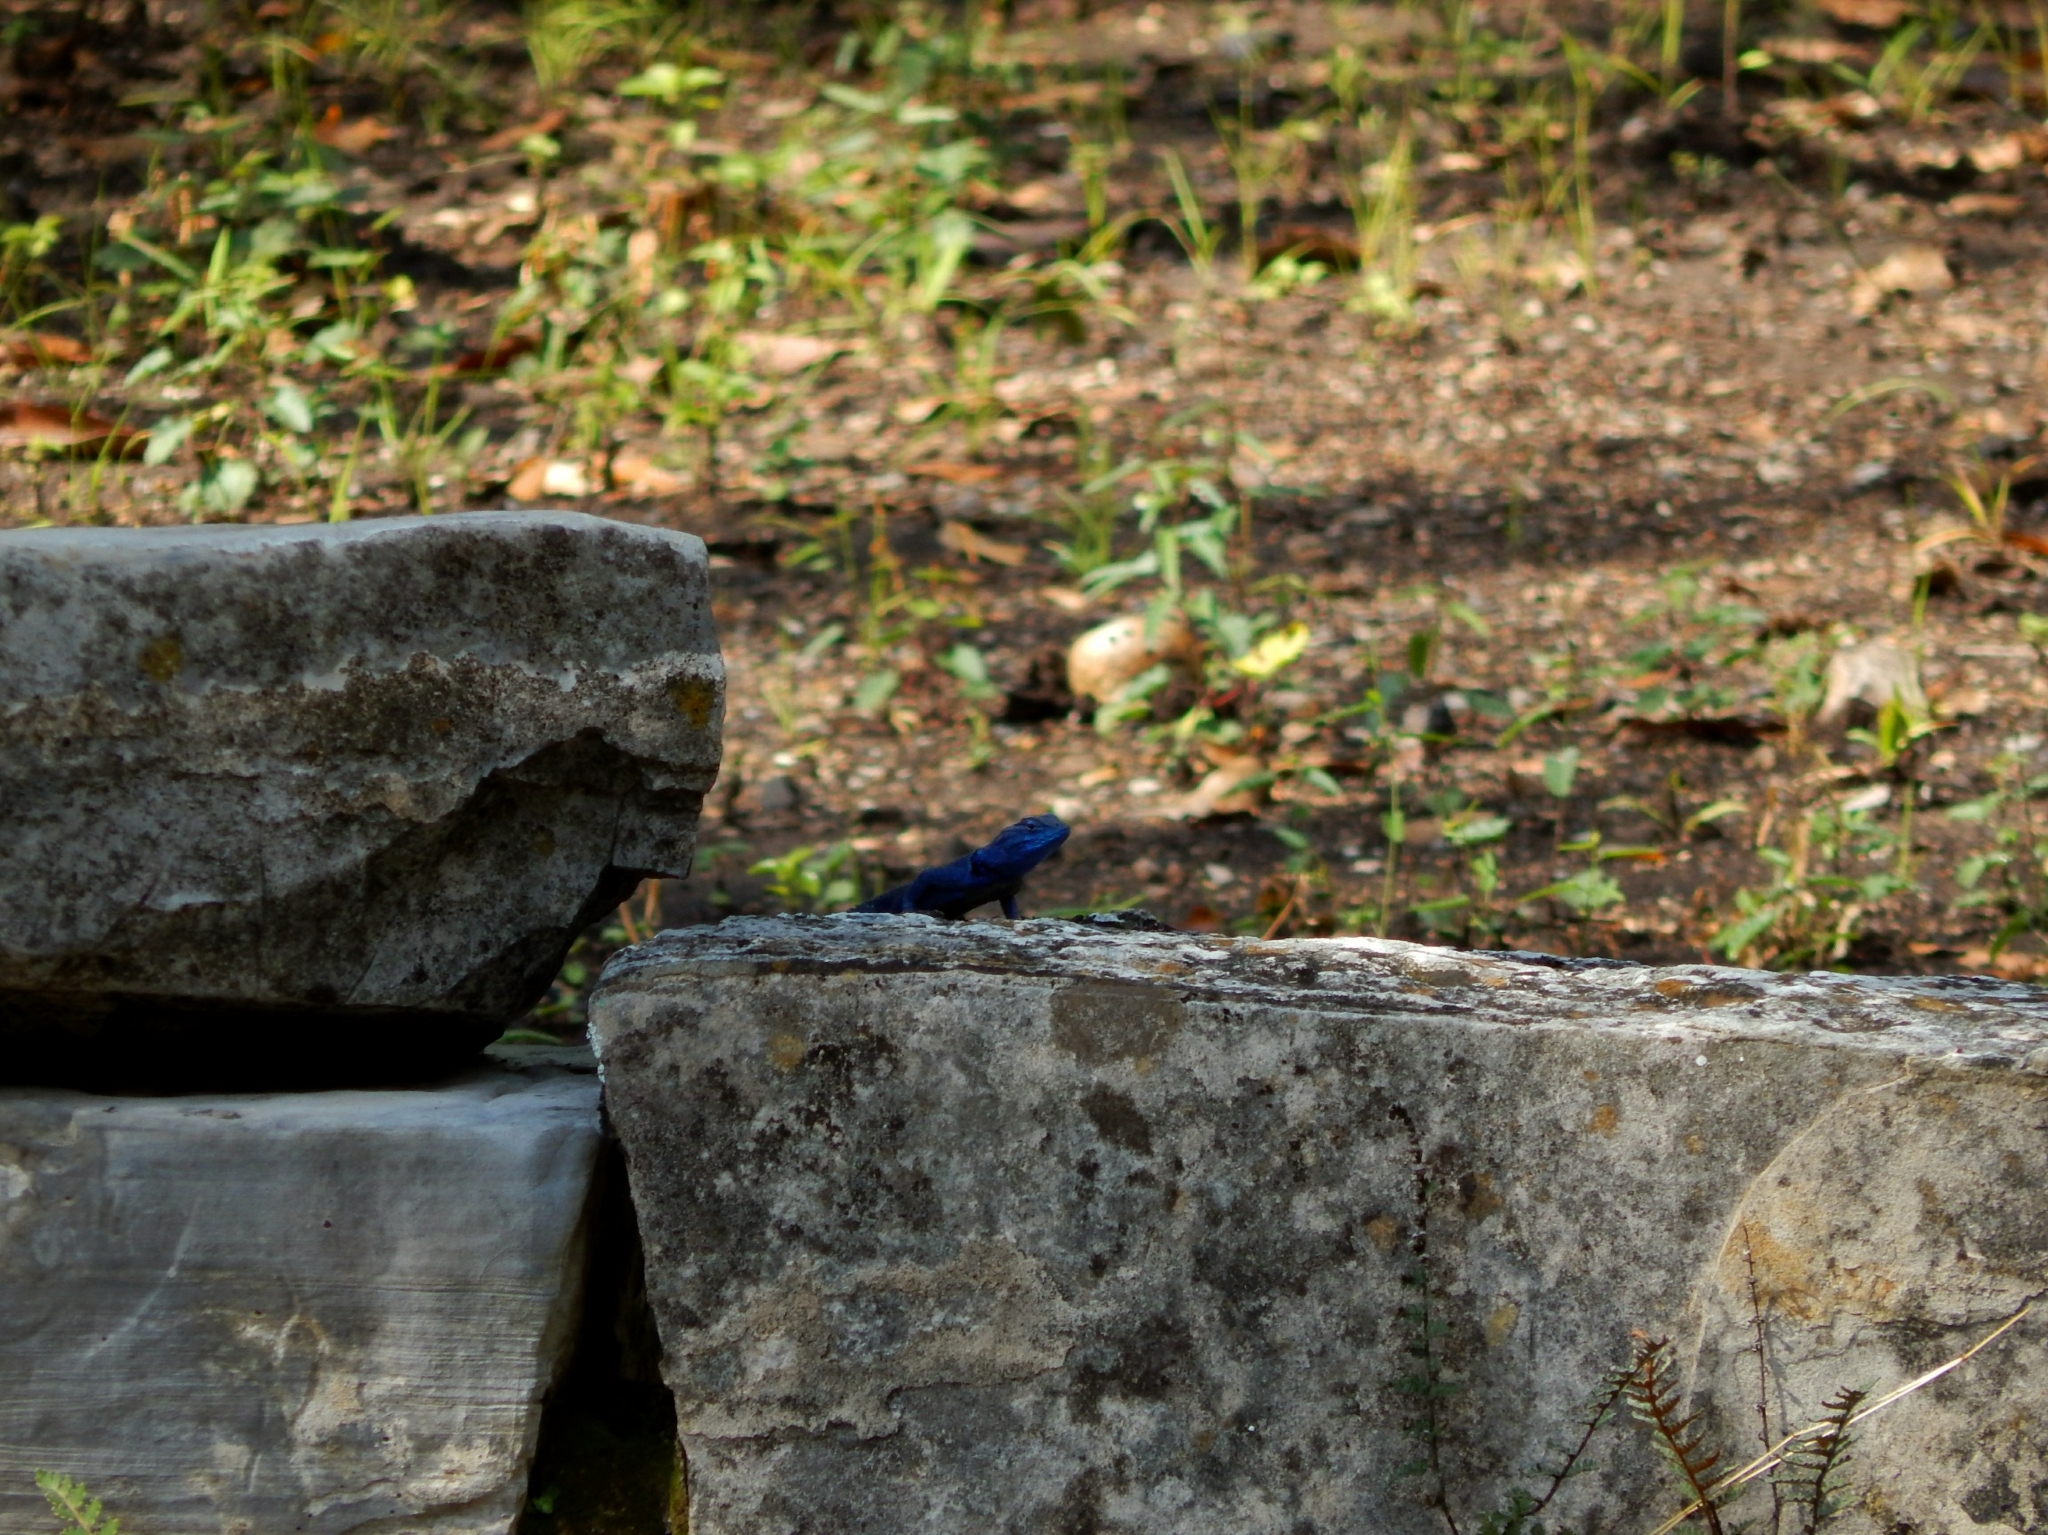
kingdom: Animalia
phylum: Chordata
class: Squamata
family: Phrynosomatidae
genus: Sceloporus
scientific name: Sceloporus minor
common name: Minor lizard
